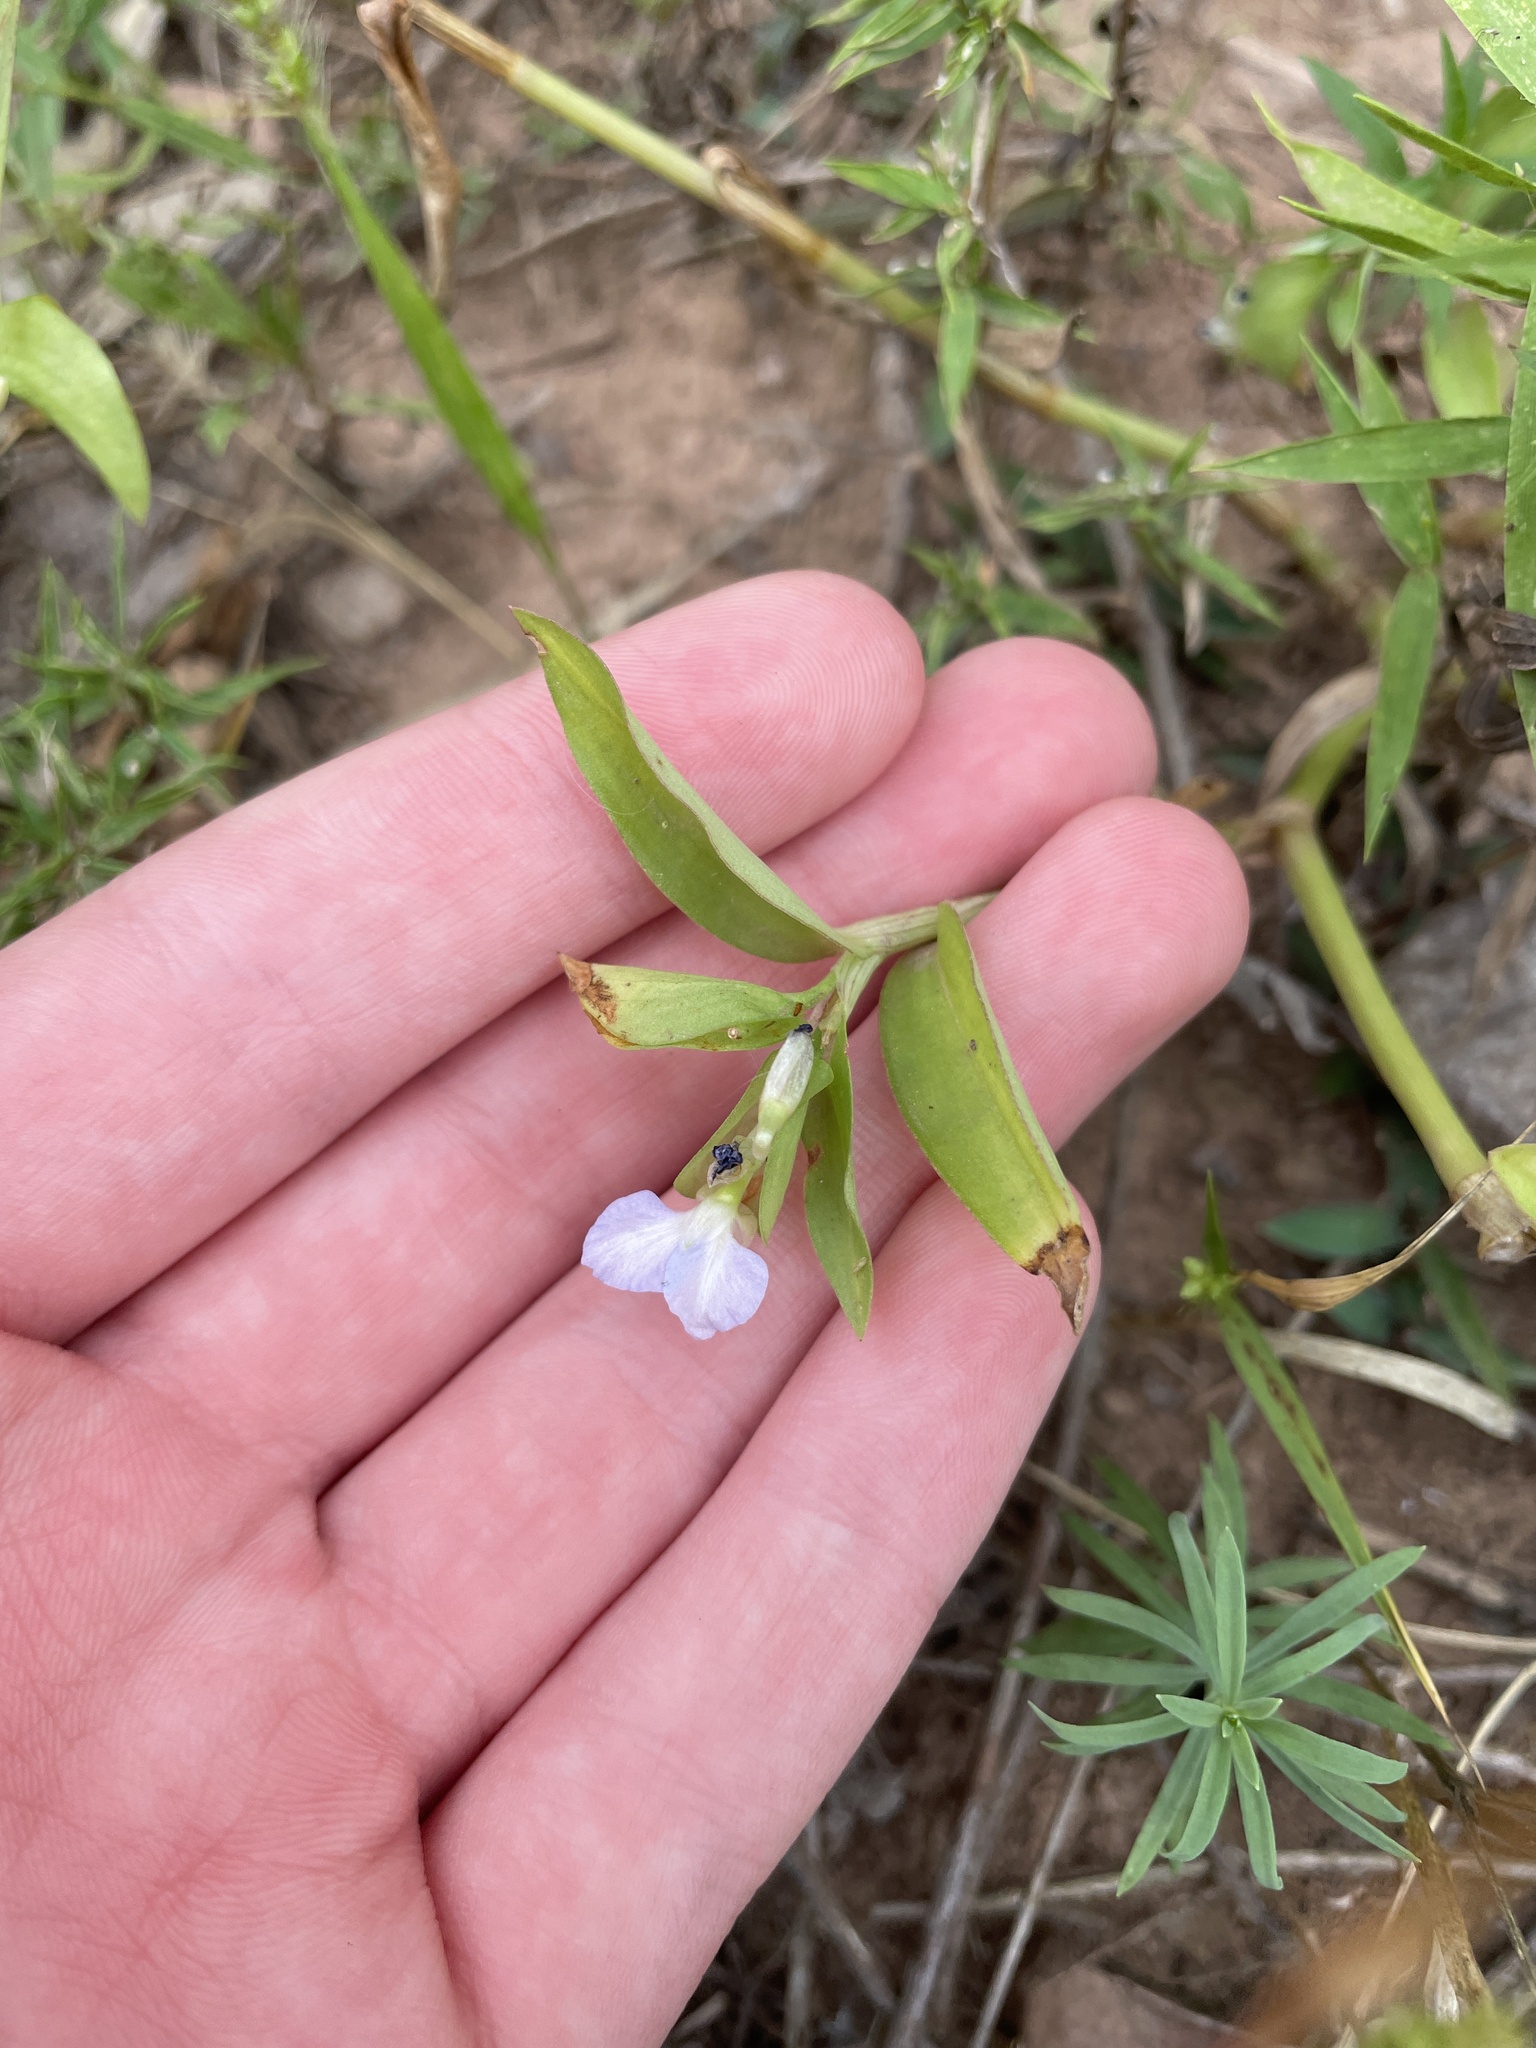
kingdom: Plantae
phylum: Tracheophyta
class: Liliopsida
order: Commelinales
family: Commelinaceae
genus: Commelina
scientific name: Commelina communis
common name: Asiatic dayflower
